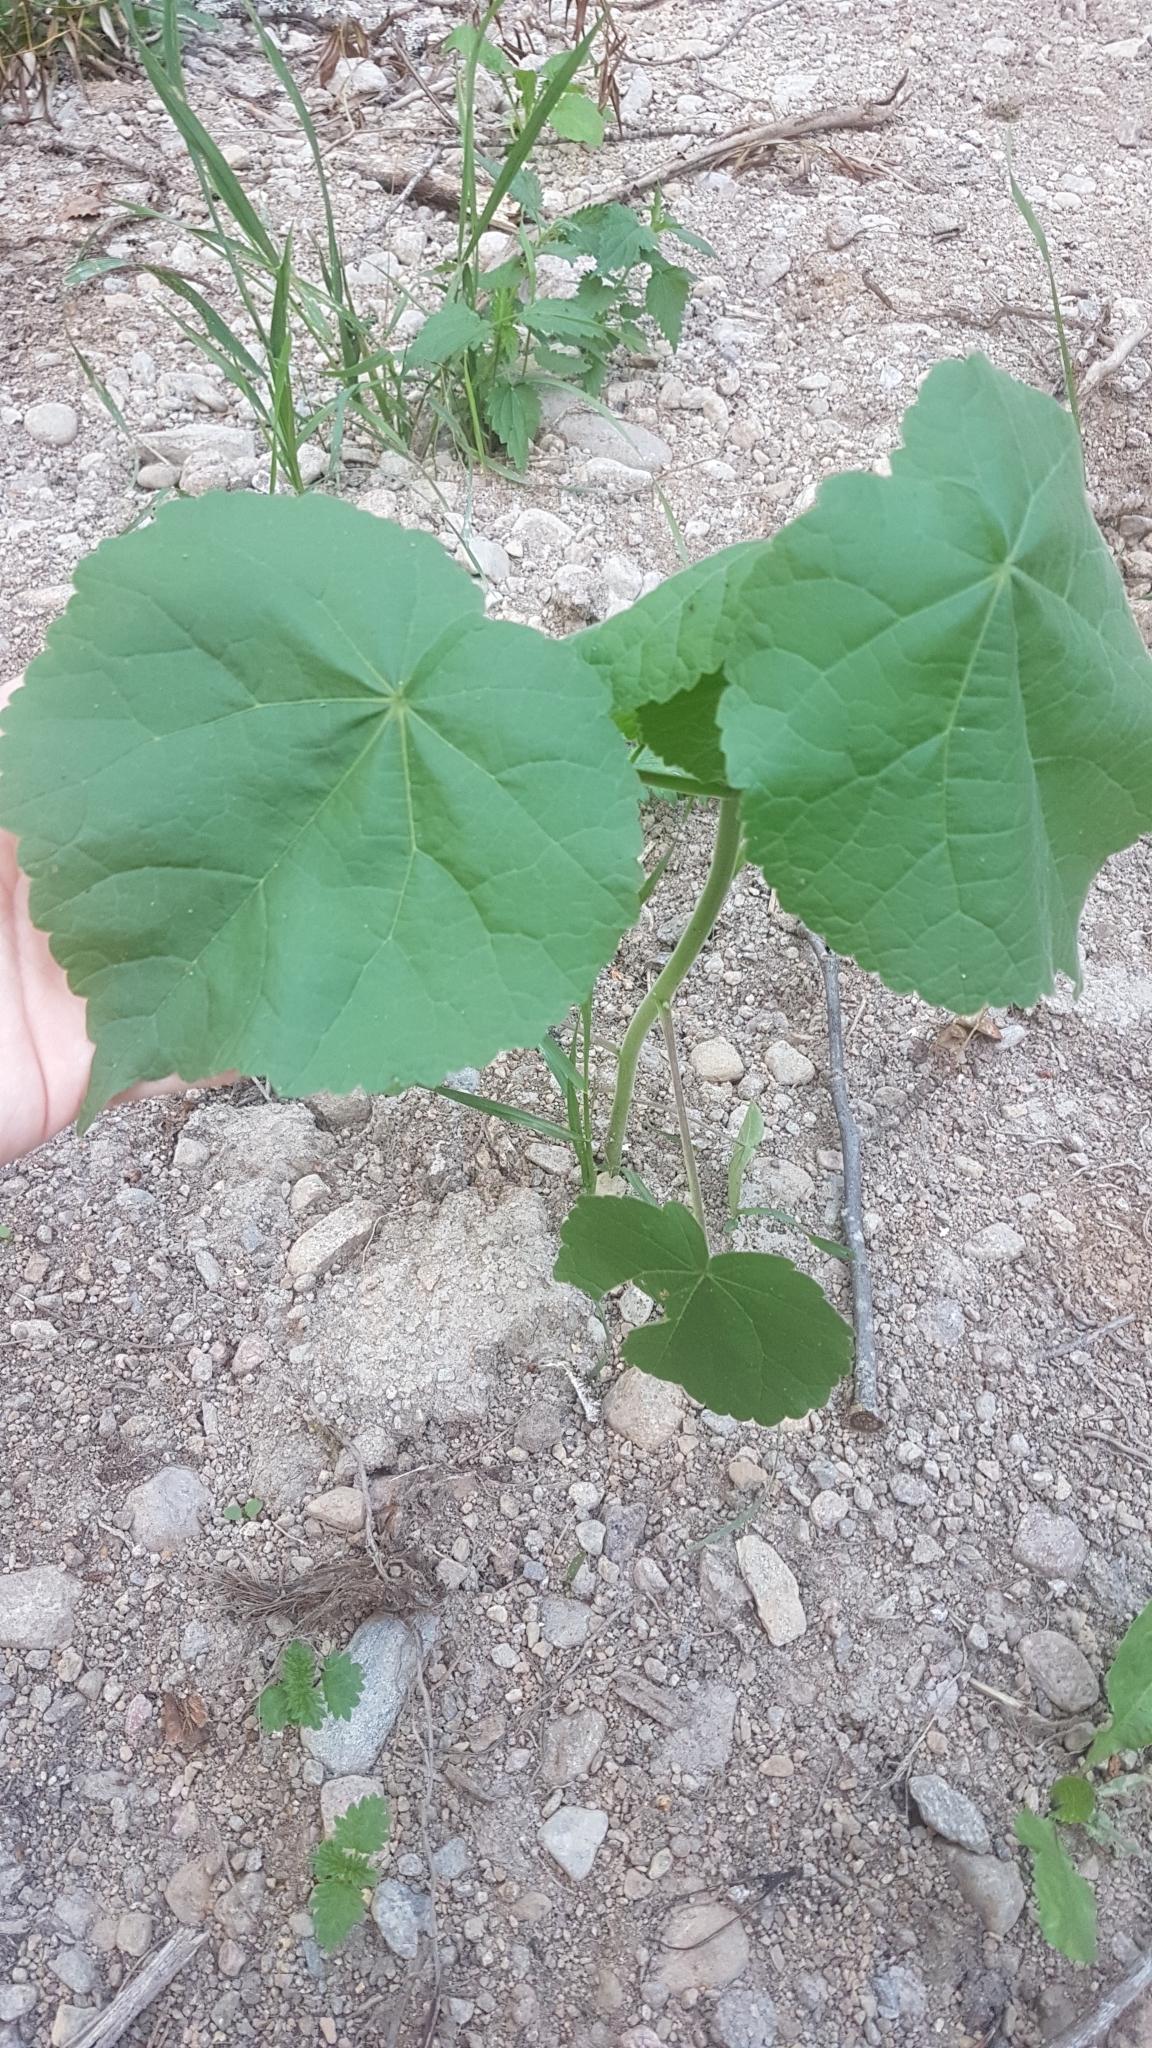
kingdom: Plantae
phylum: Tracheophyta
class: Magnoliopsida
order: Malvales
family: Malvaceae
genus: Abutilon
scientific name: Abutilon theophrasti
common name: Velvetleaf
